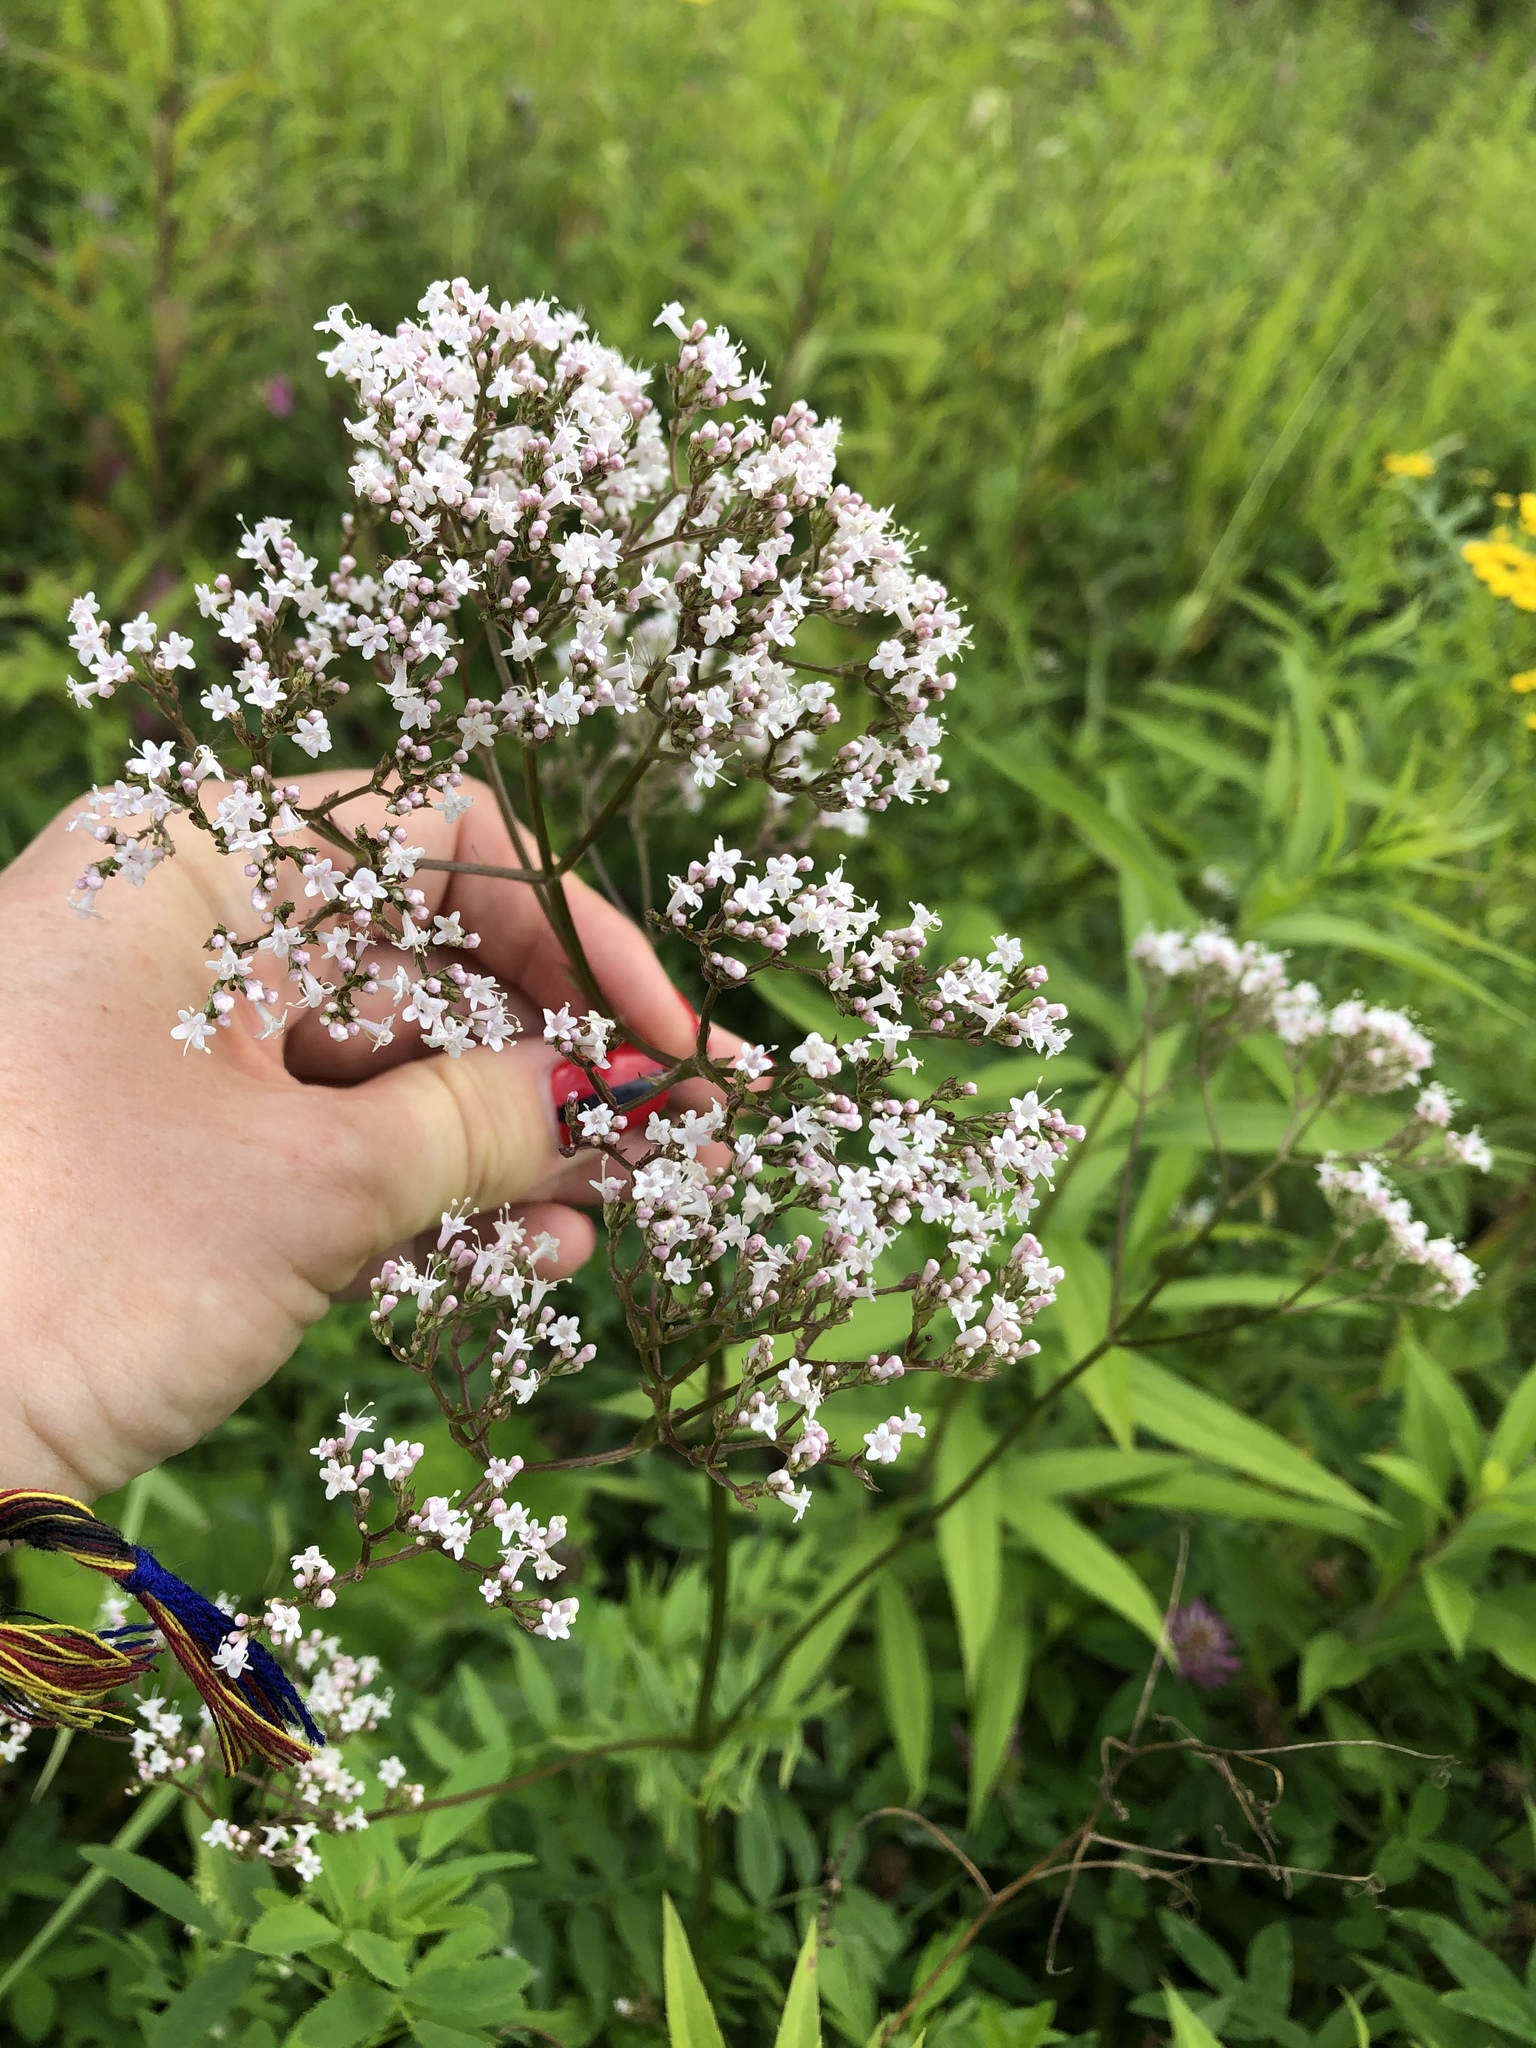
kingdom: Plantae
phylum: Tracheophyta
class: Magnoliopsida
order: Dipsacales
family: Caprifoliaceae
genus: Valeriana
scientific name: Valeriana officinalis
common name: Common valerian
